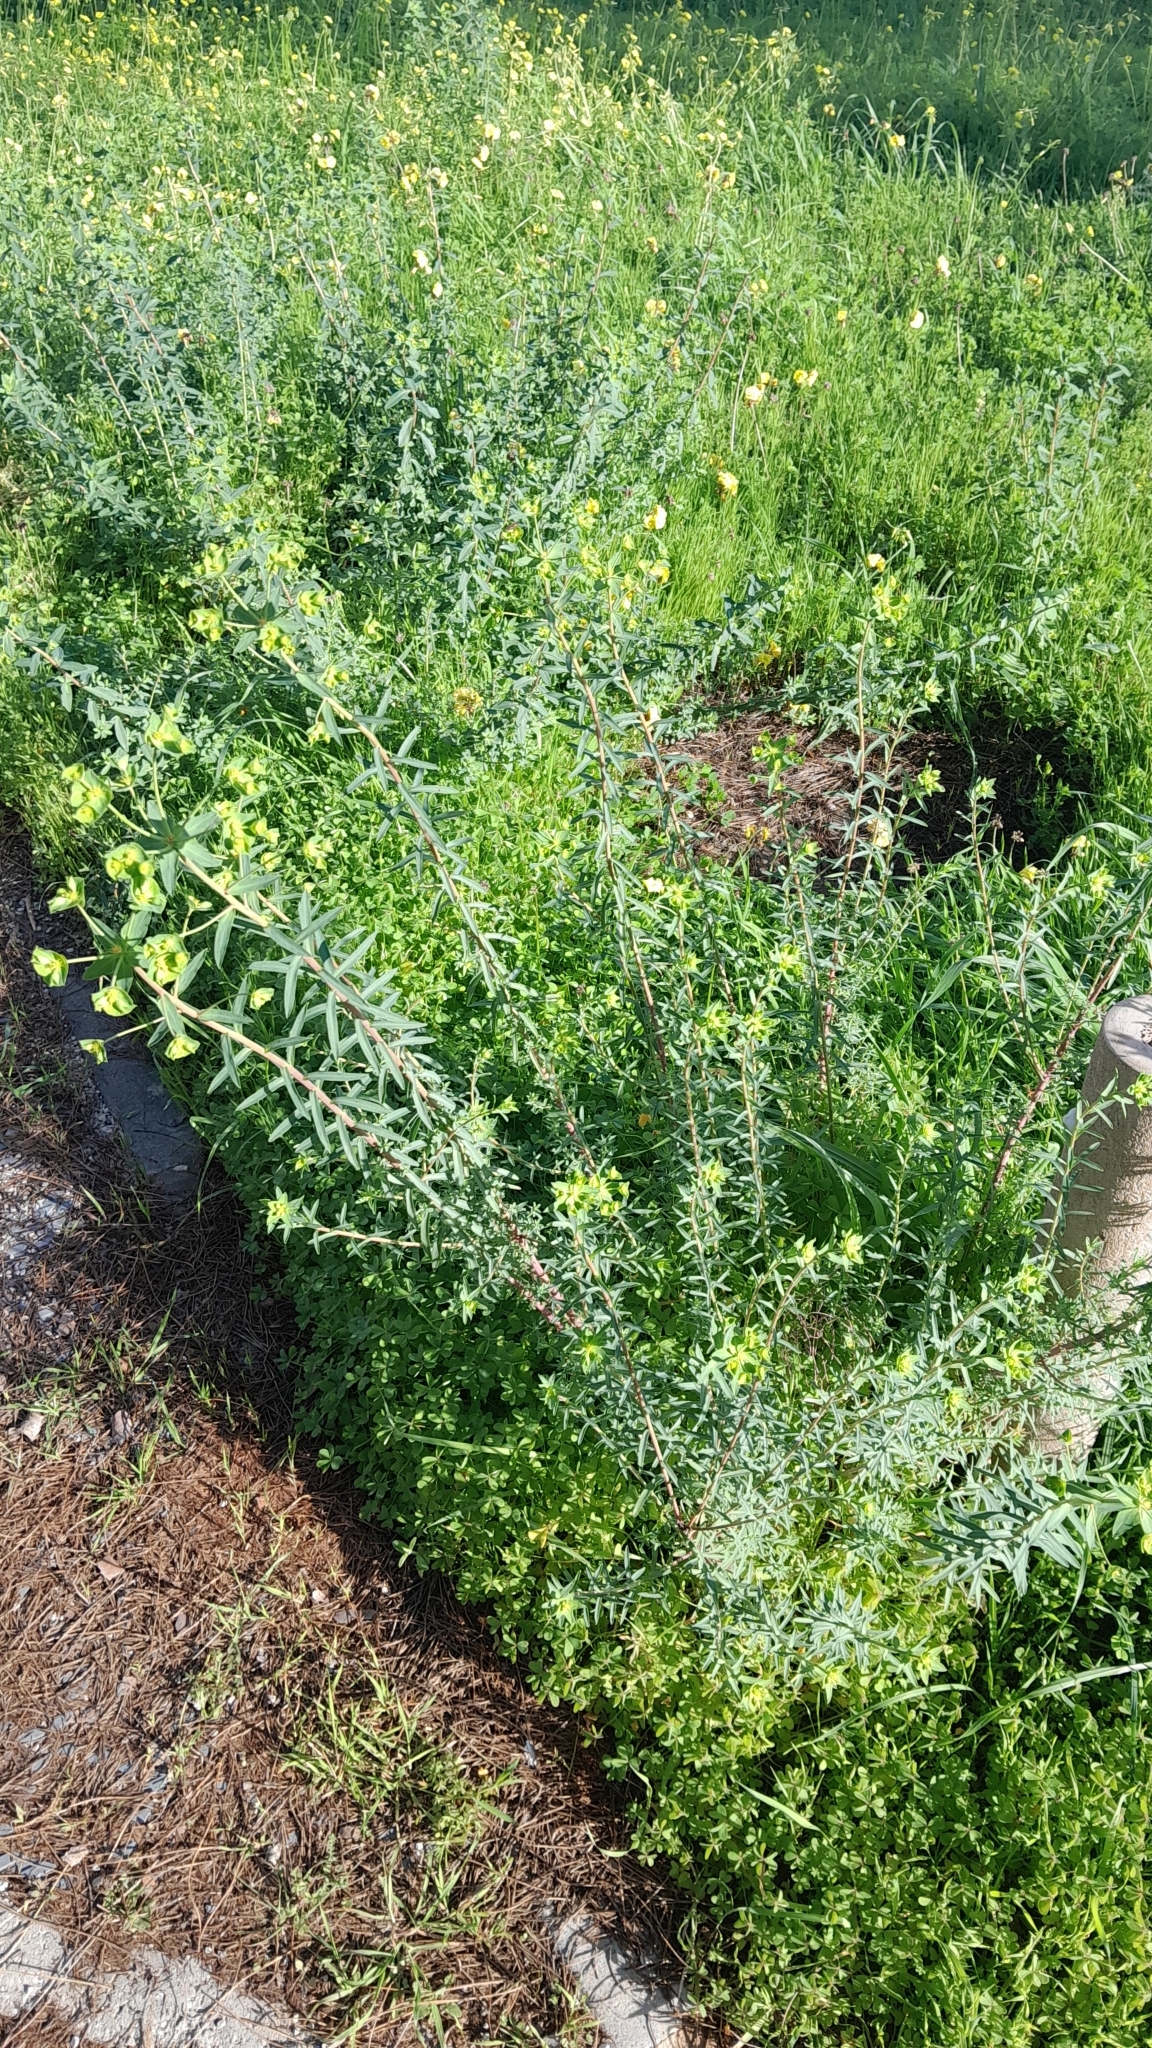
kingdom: Plantae
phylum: Tracheophyta
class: Magnoliopsida
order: Malpighiales
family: Euphorbiaceae
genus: Euphorbia
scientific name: Euphorbia terracina
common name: Geraldton carnation weed
